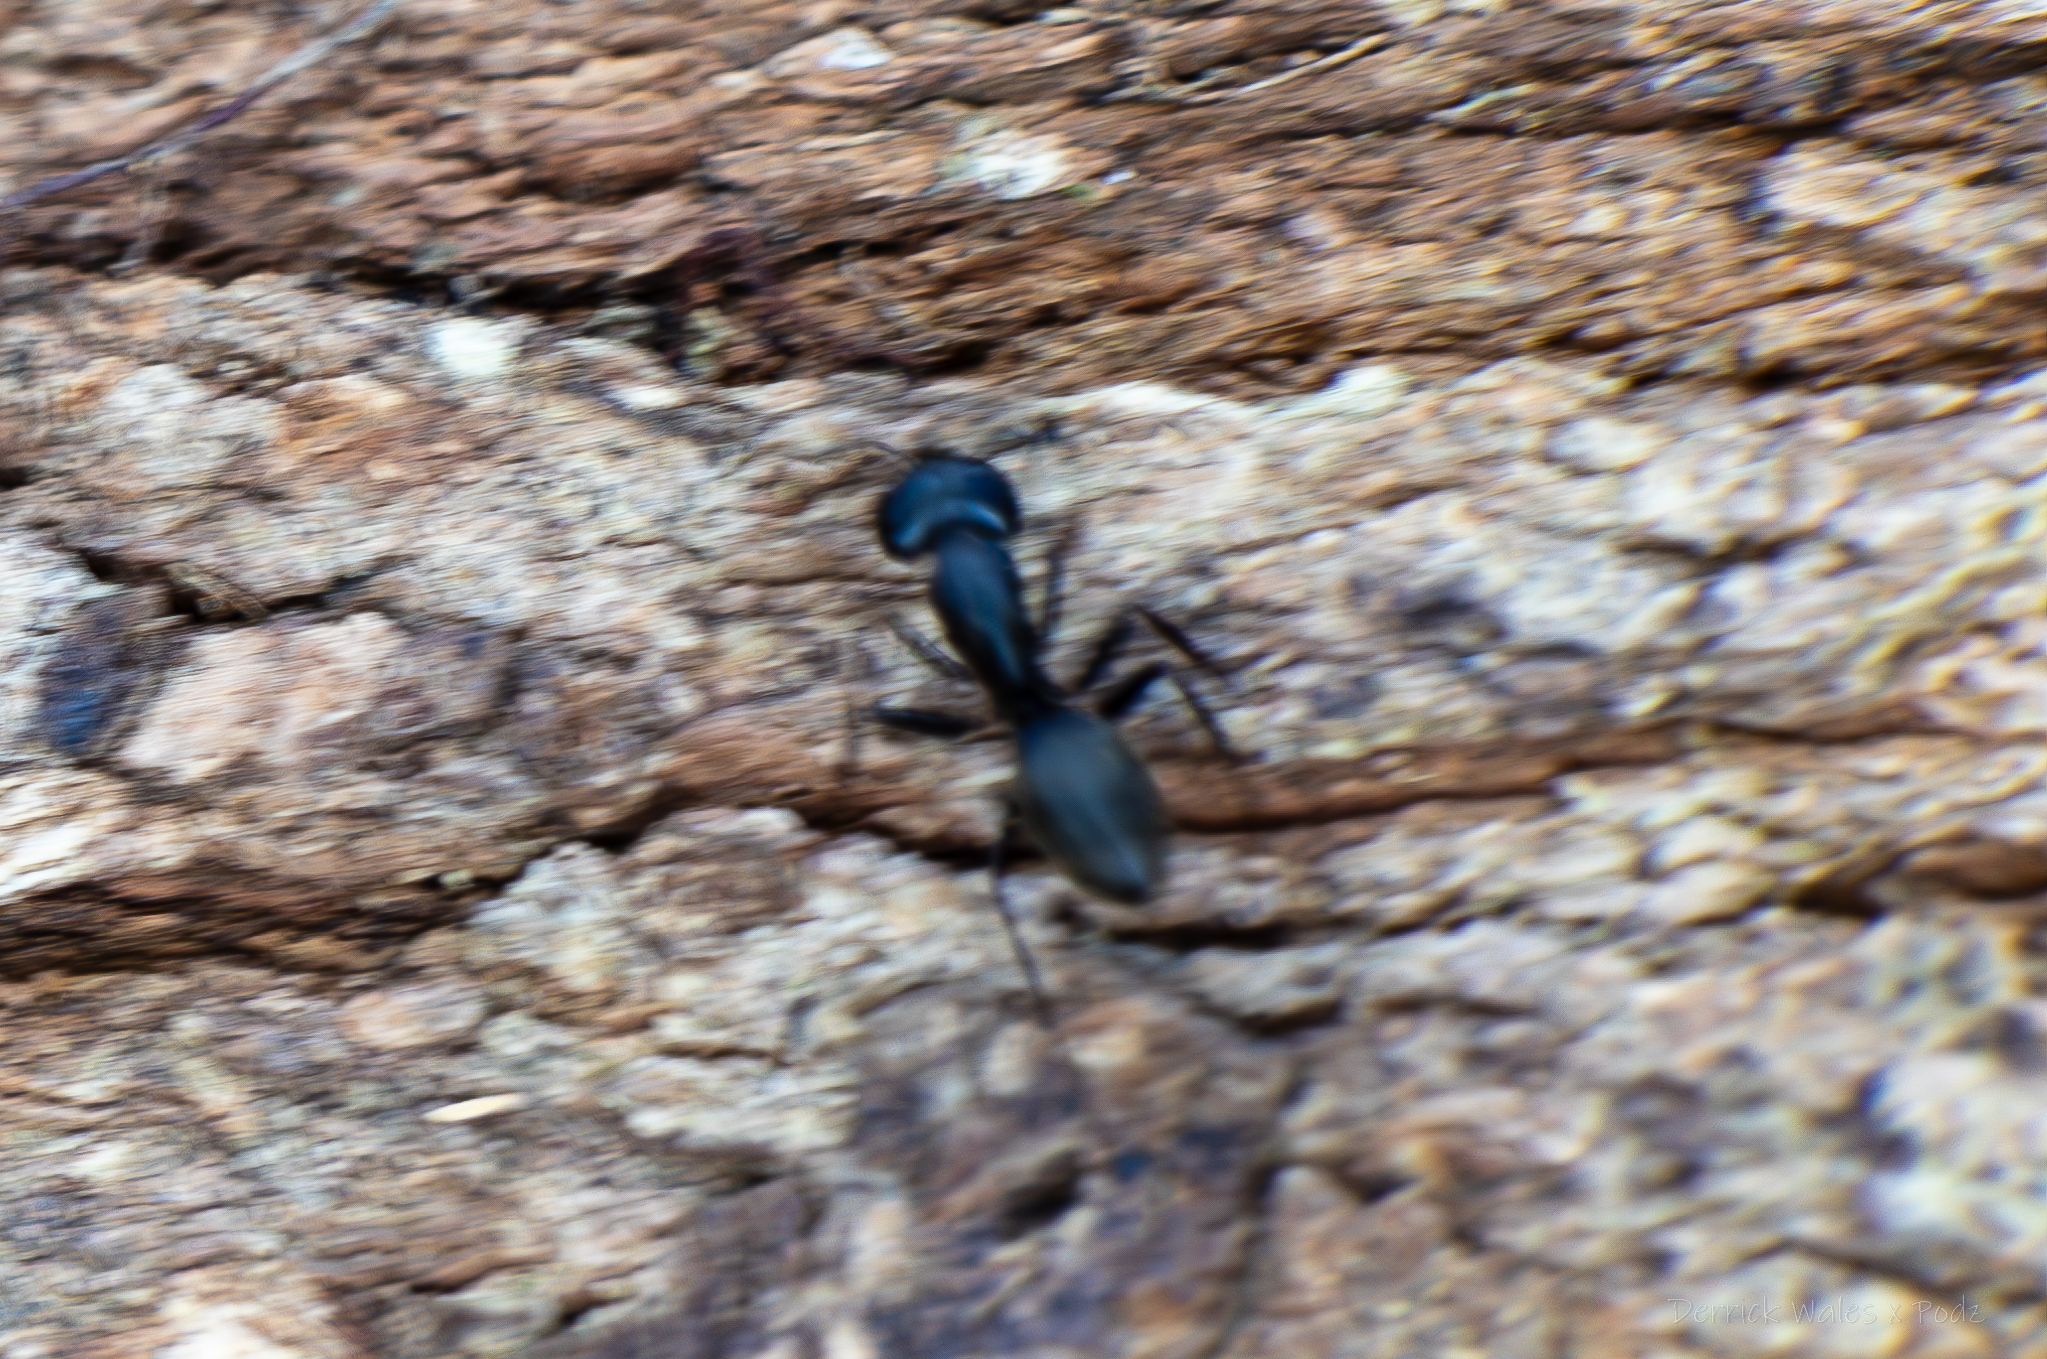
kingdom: Animalia
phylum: Arthropoda
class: Insecta
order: Hymenoptera
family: Formicidae
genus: Camponotus
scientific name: Camponotus pennsylvanicus
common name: Black carpenter ant
